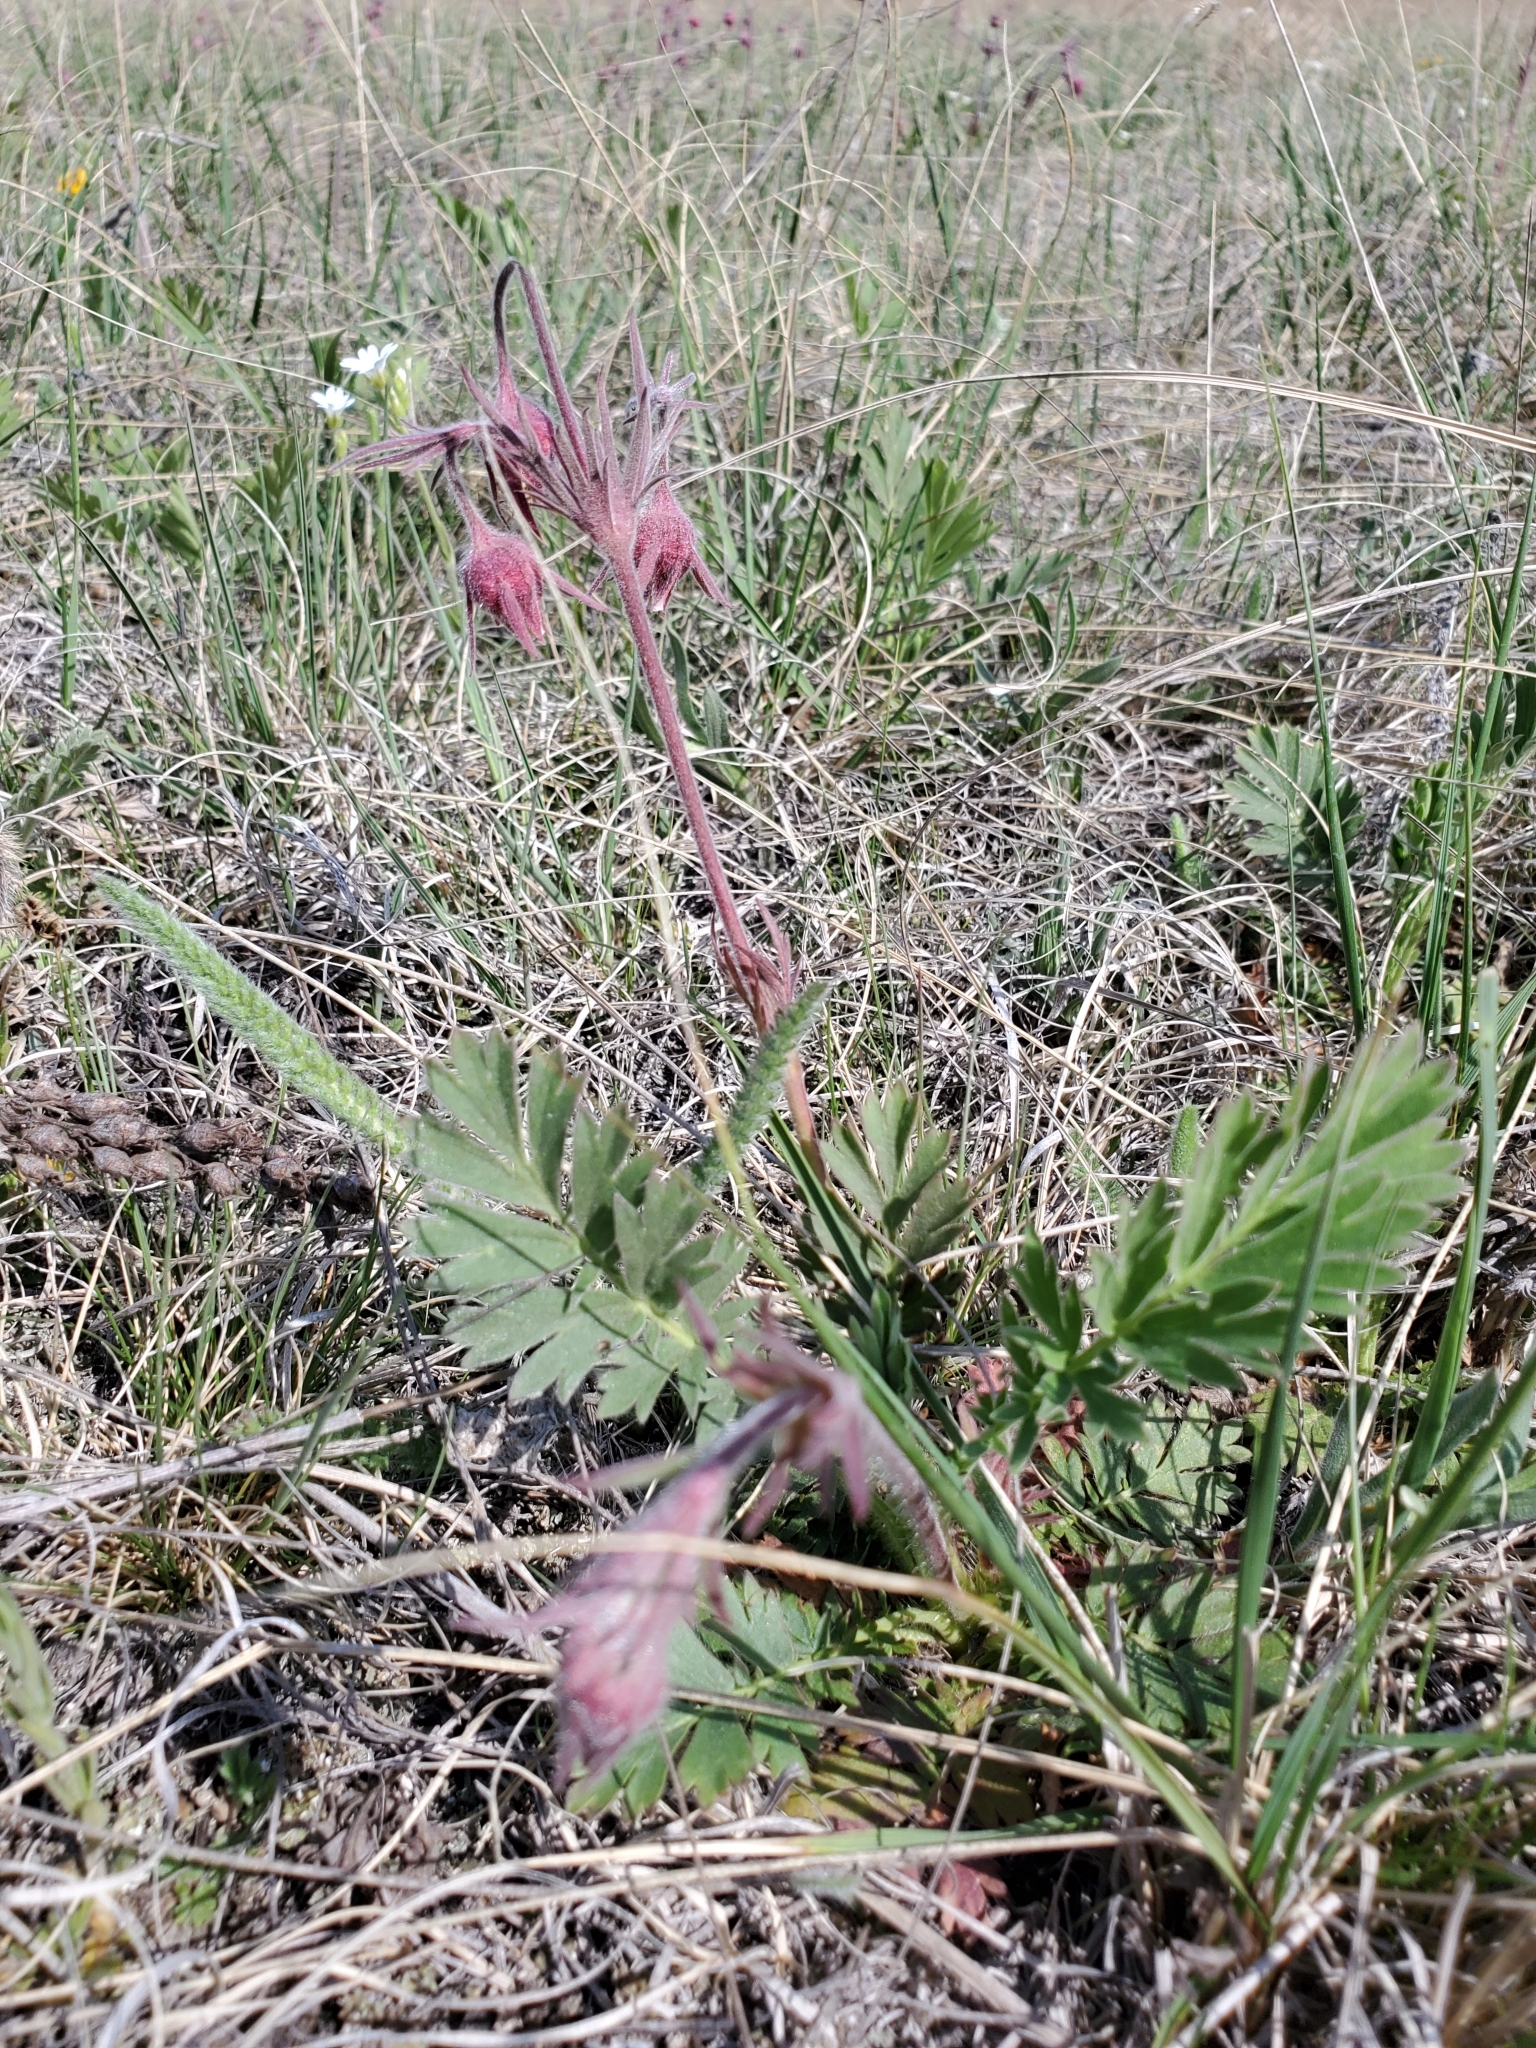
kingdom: Plantae
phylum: Tracheophyta
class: Magnoliopsida
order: Rosales
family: Rosaceae
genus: Geum
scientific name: Geum triflorum
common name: Old man's whiskers
